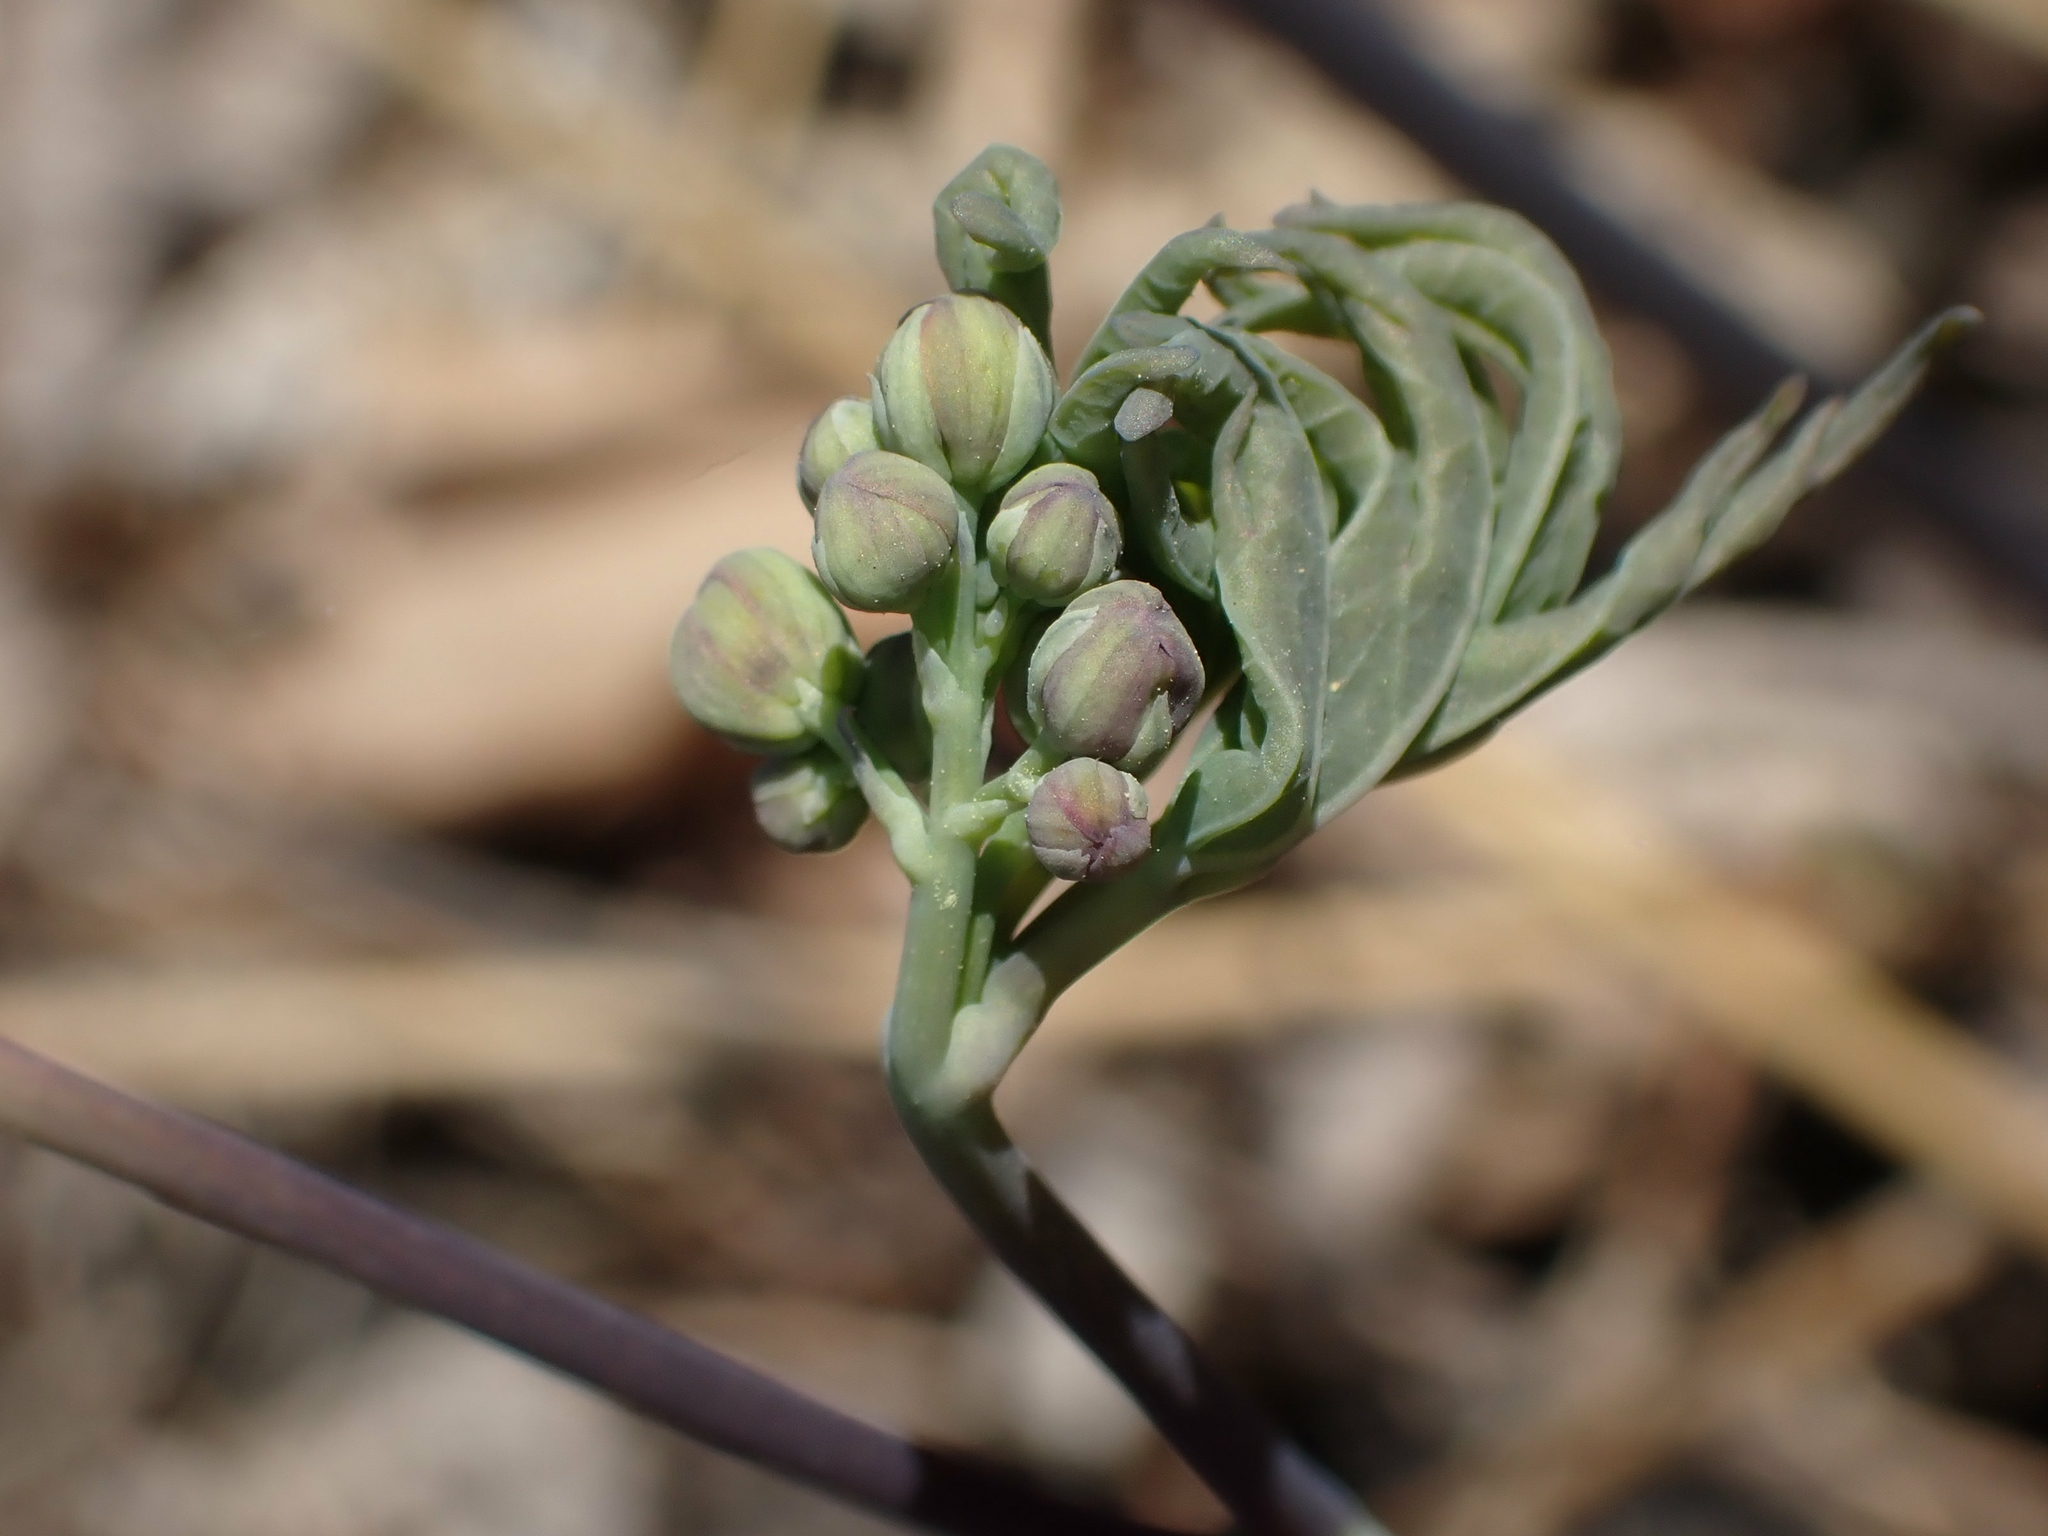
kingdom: Plantae
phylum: Tracheophyta
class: Magnoliopsida
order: Ranunculales
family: Berberidaceae
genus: Caulophyllum
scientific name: Caulophyllum thalictroides
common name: Blue cohosh
